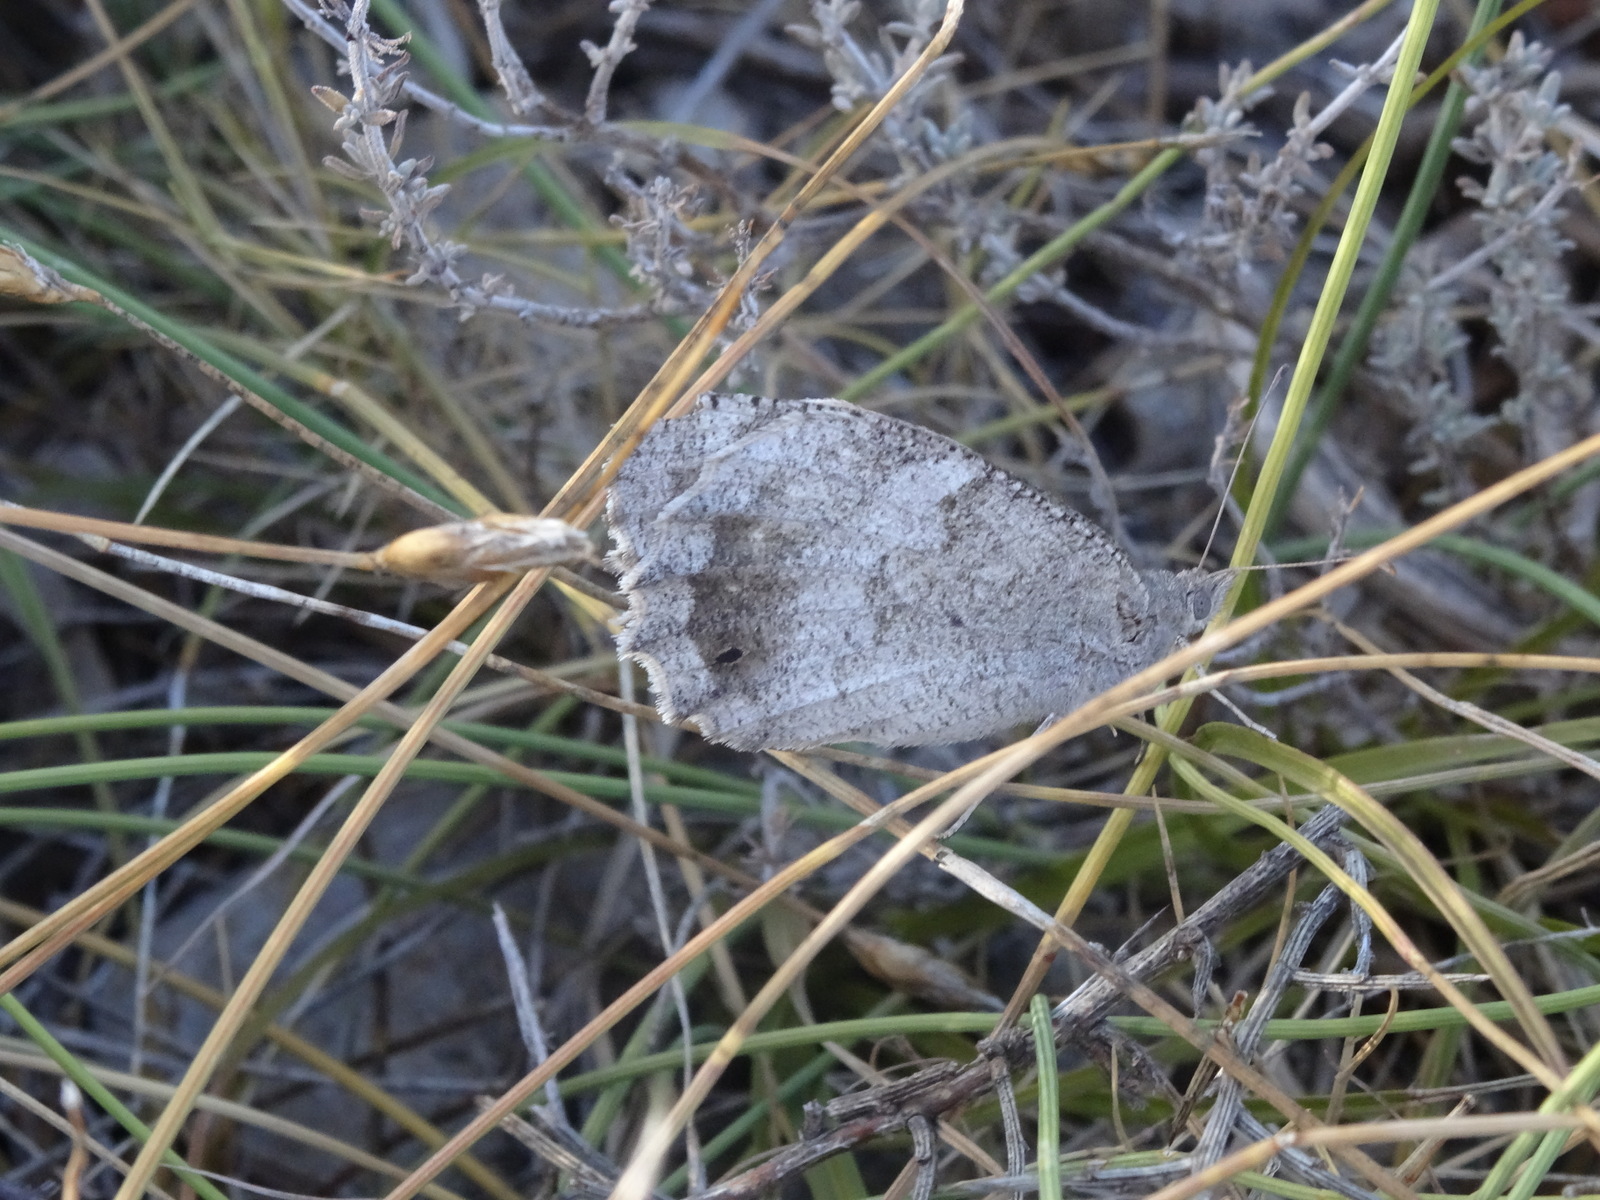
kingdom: Animalia
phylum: Arthropoda
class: Insecta
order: Lepidoptera
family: Nymphalidae
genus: Hipparchia
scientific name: Hipparchia statilinus
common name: Tree grayling
